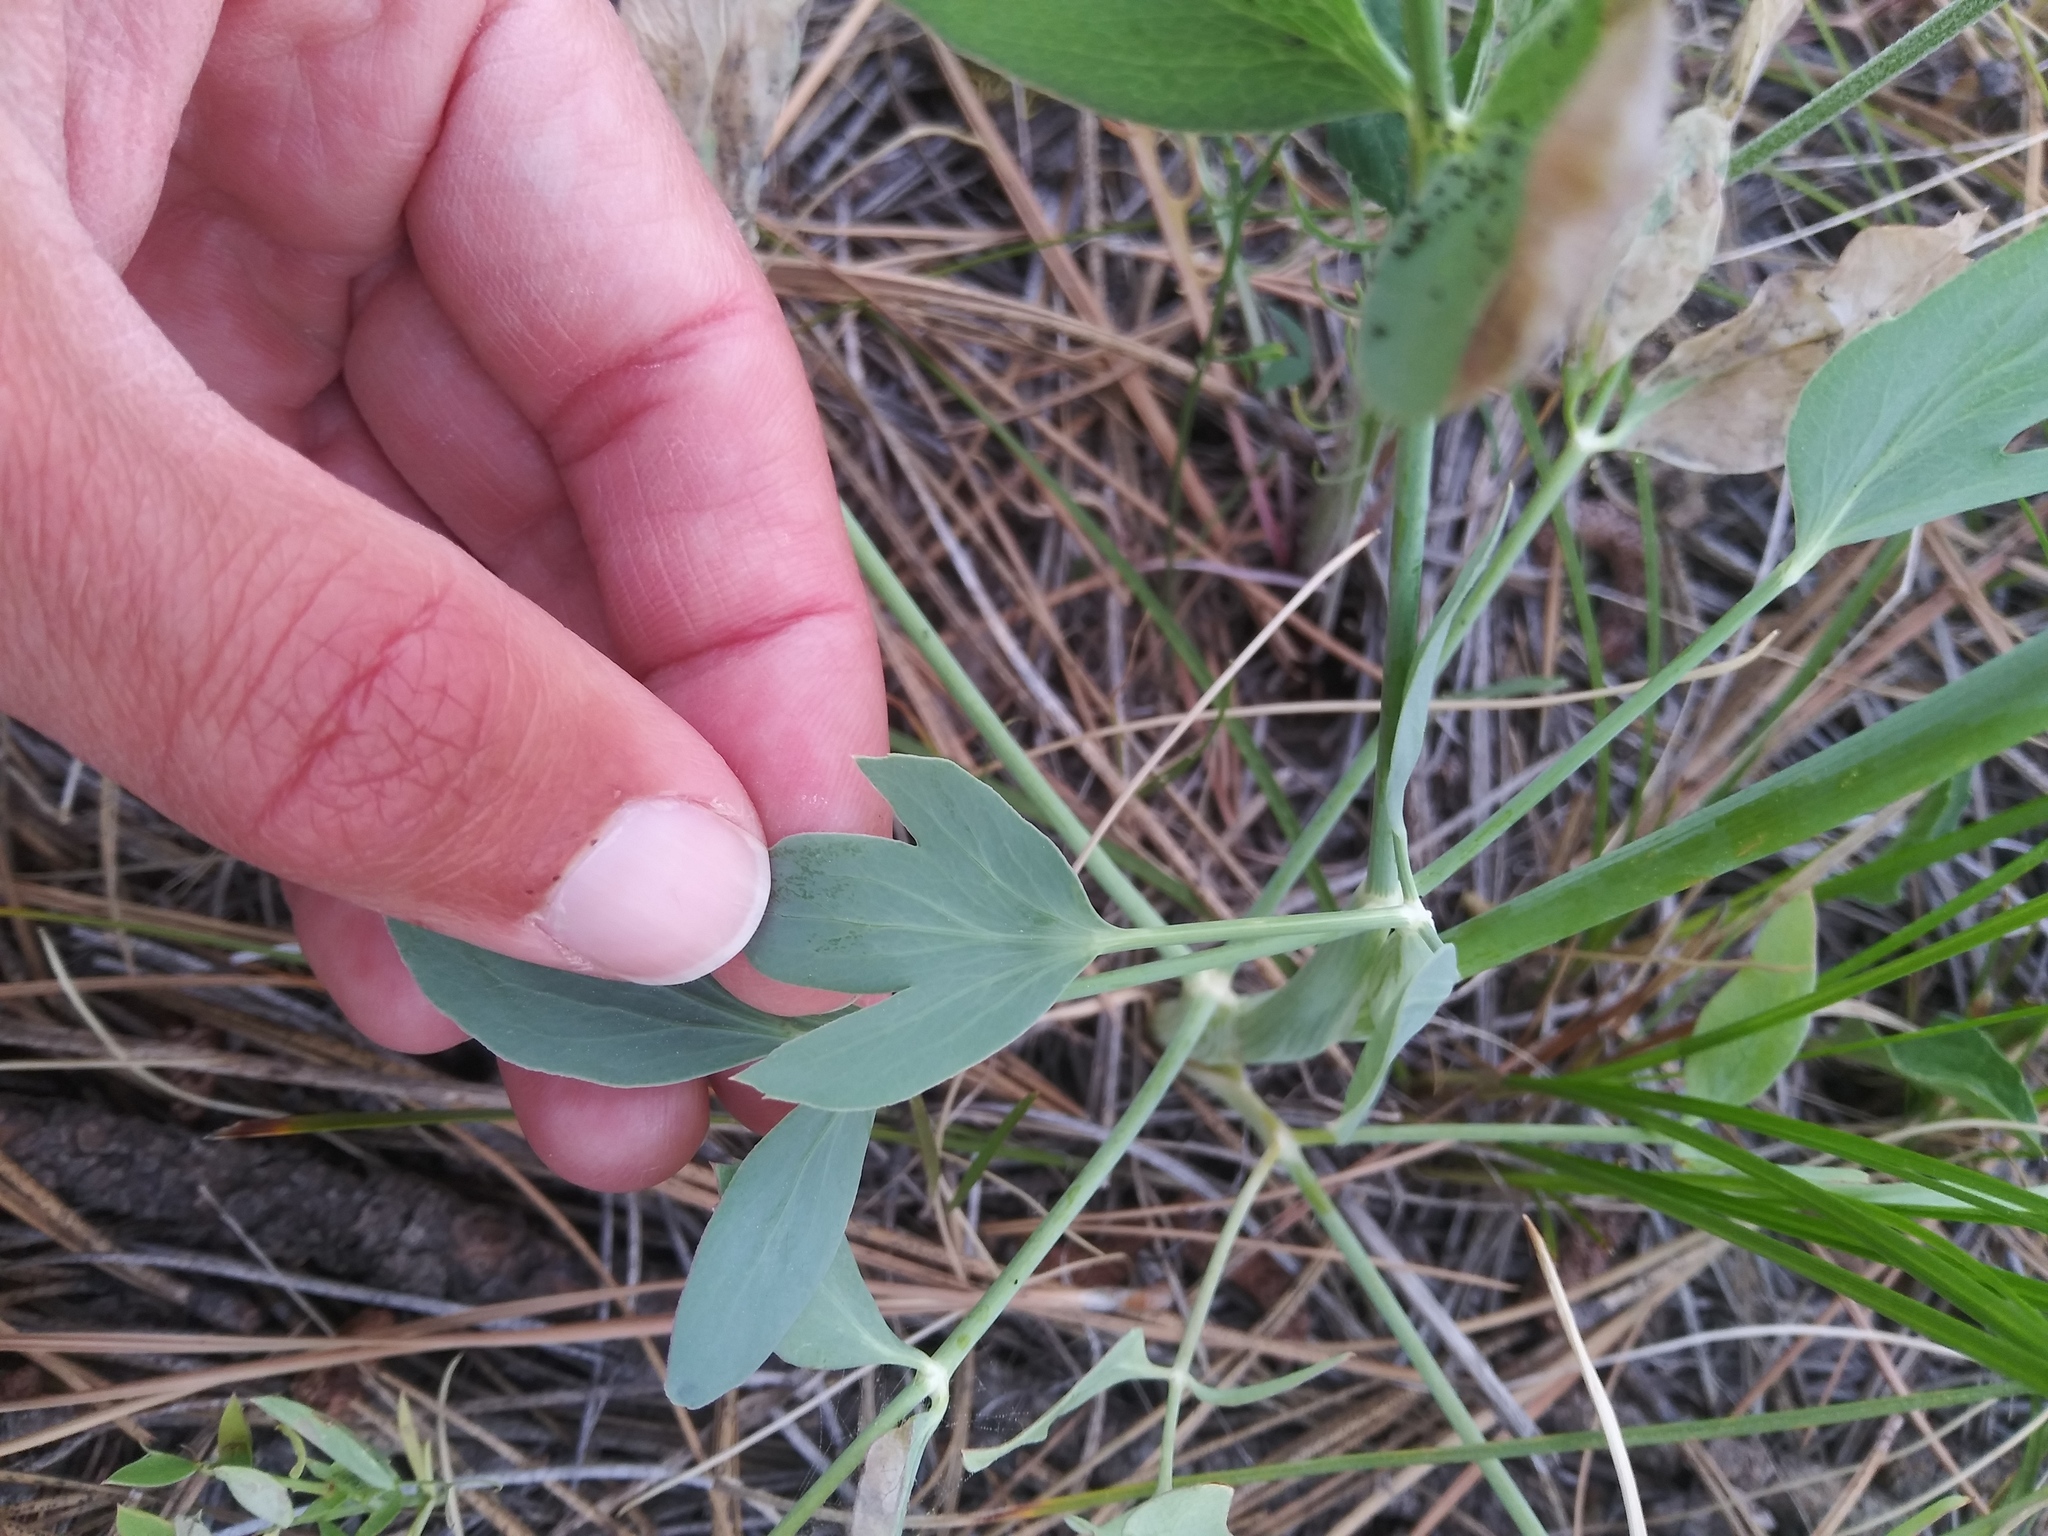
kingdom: Plantae
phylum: Tracheophyta
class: Magnoliopsida
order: Apiales
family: Apiaceae
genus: Lomatium
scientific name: Lomatium nudicaule
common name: Pestle lomatium
